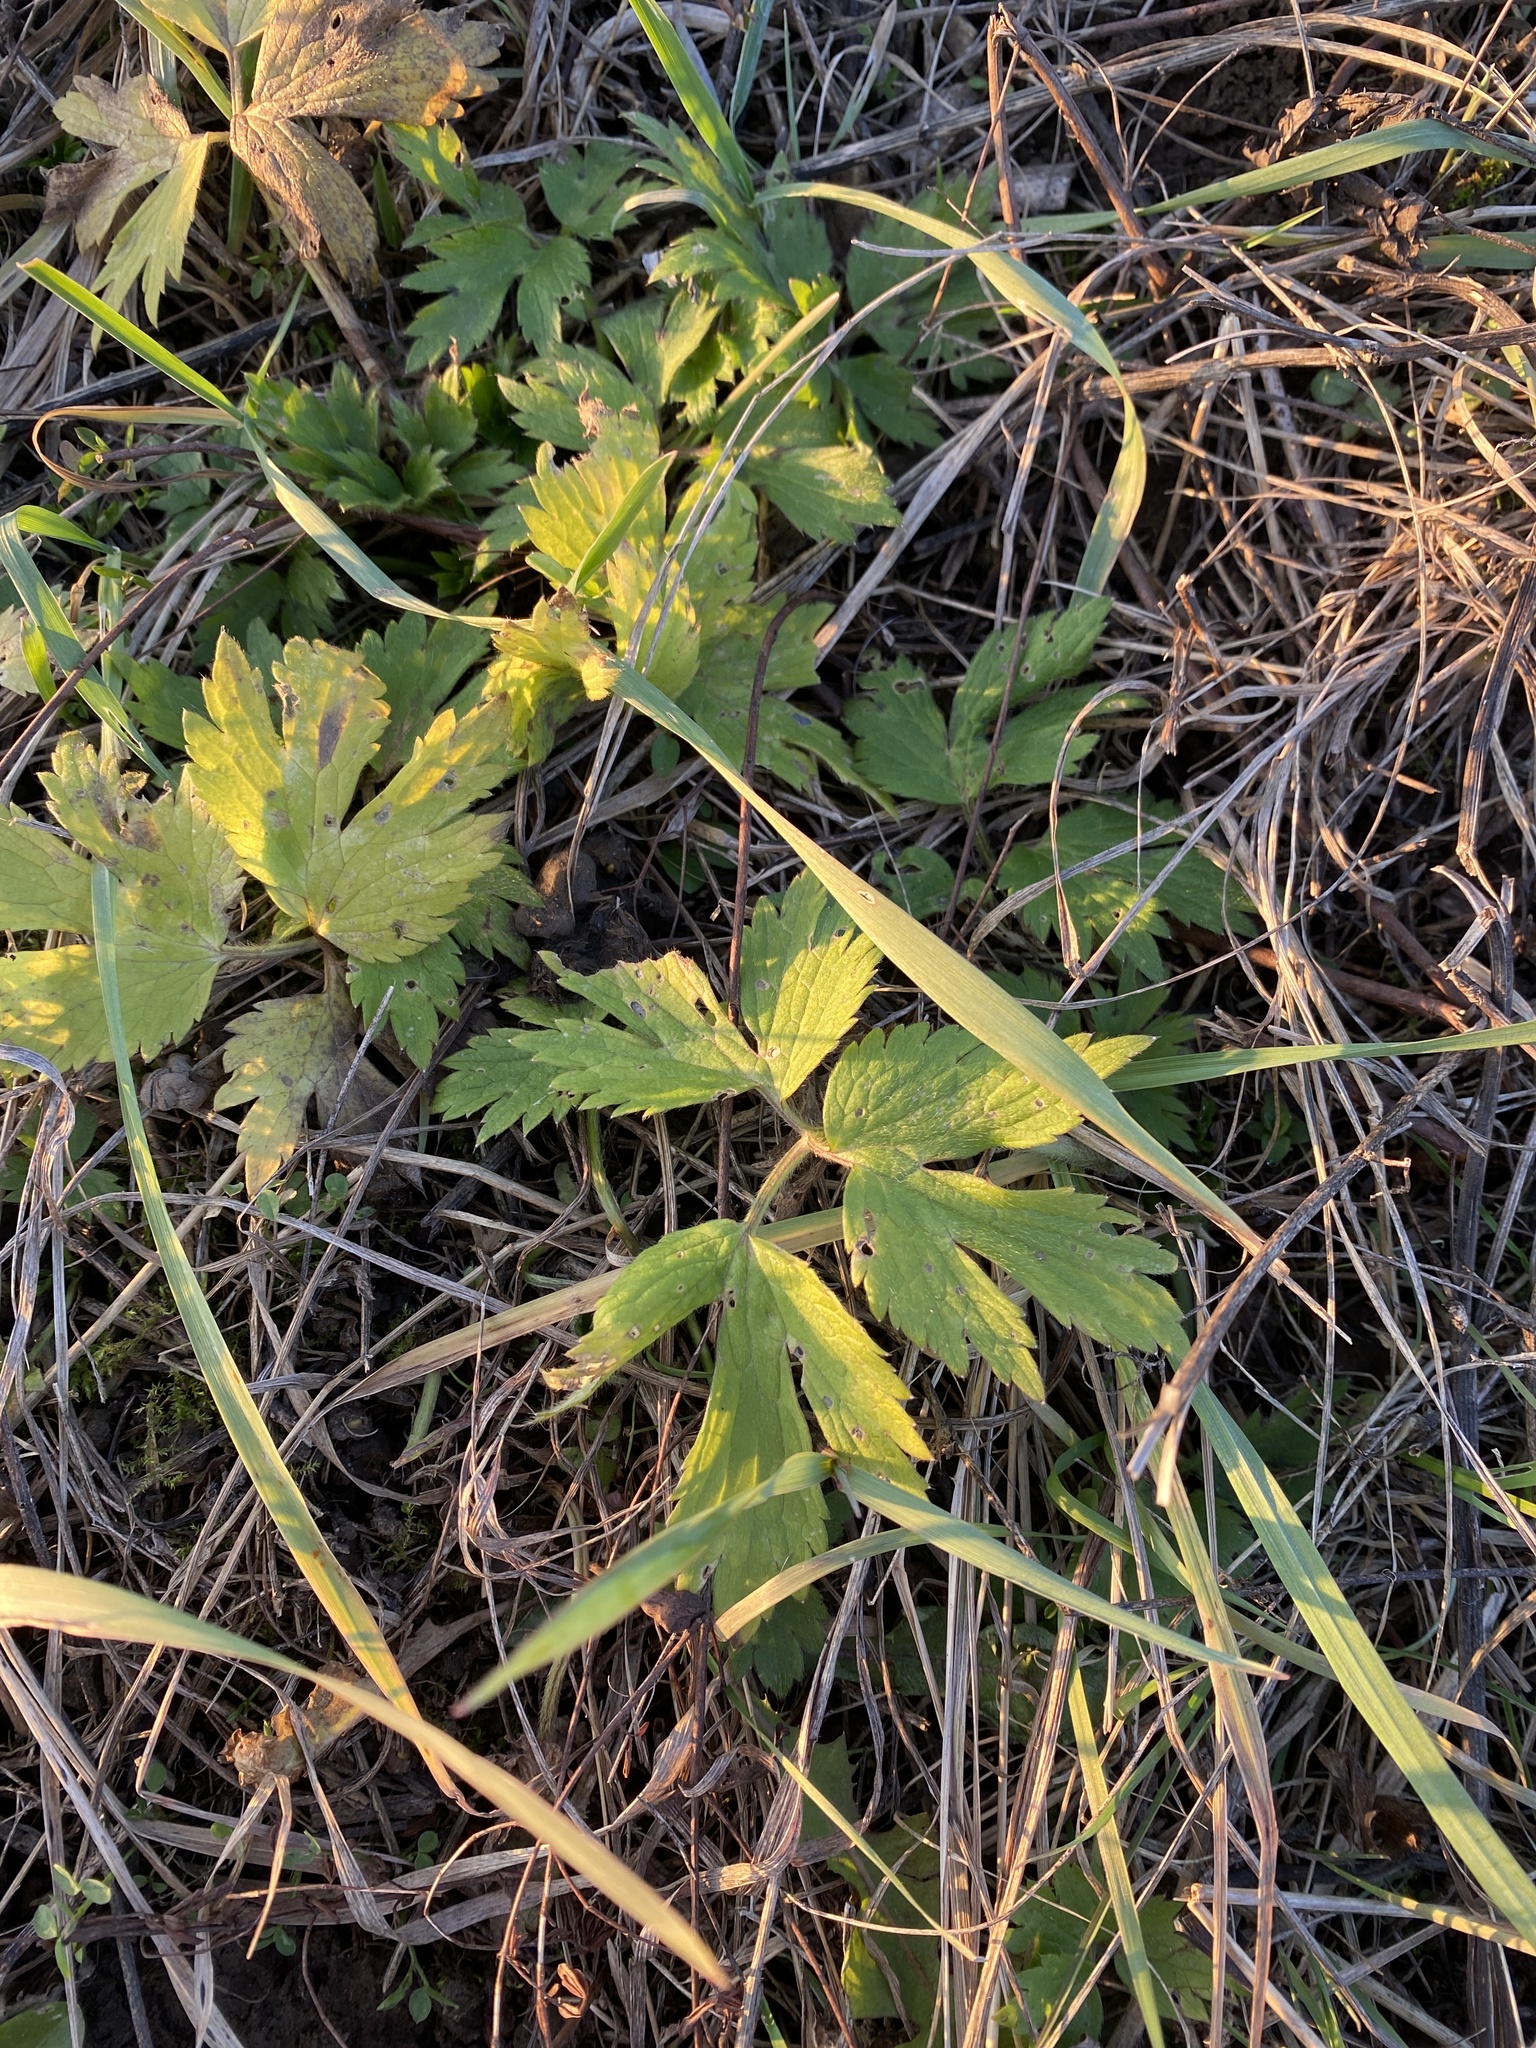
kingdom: Plantae
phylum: Tracheophyta
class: Magnoliopsida
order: Ranunculales
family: Ranunculaceae
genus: Ranunculus
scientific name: Ranunculus repens
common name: Creeping buttercup
